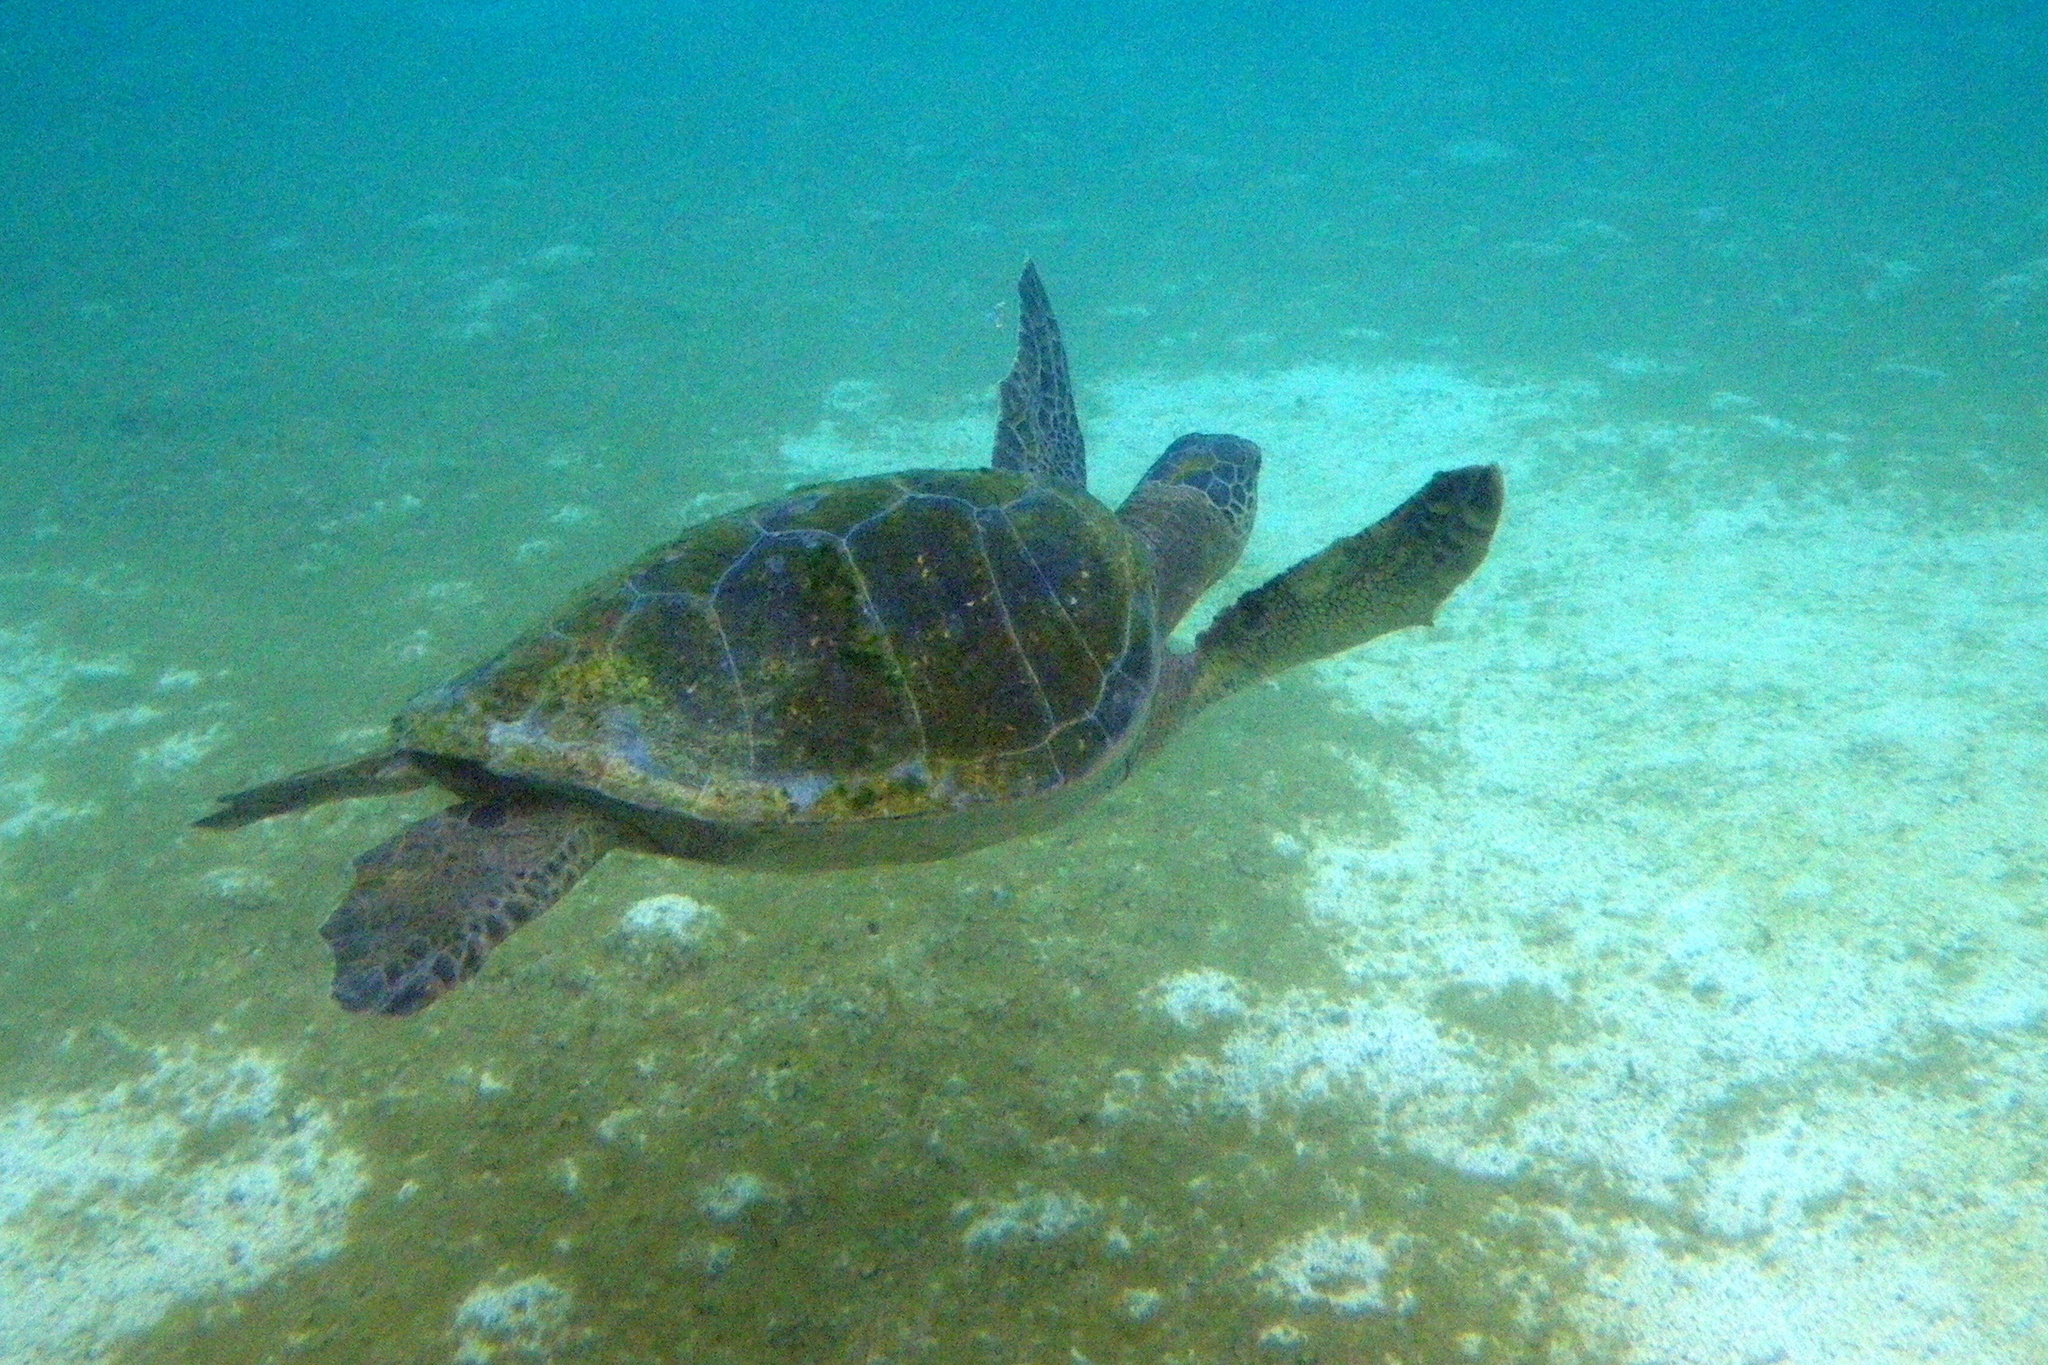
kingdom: Animalia
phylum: Chordata
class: Testudines
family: Cheloniidae
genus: Chelonia
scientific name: Chelonia mydas
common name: Green turtle
